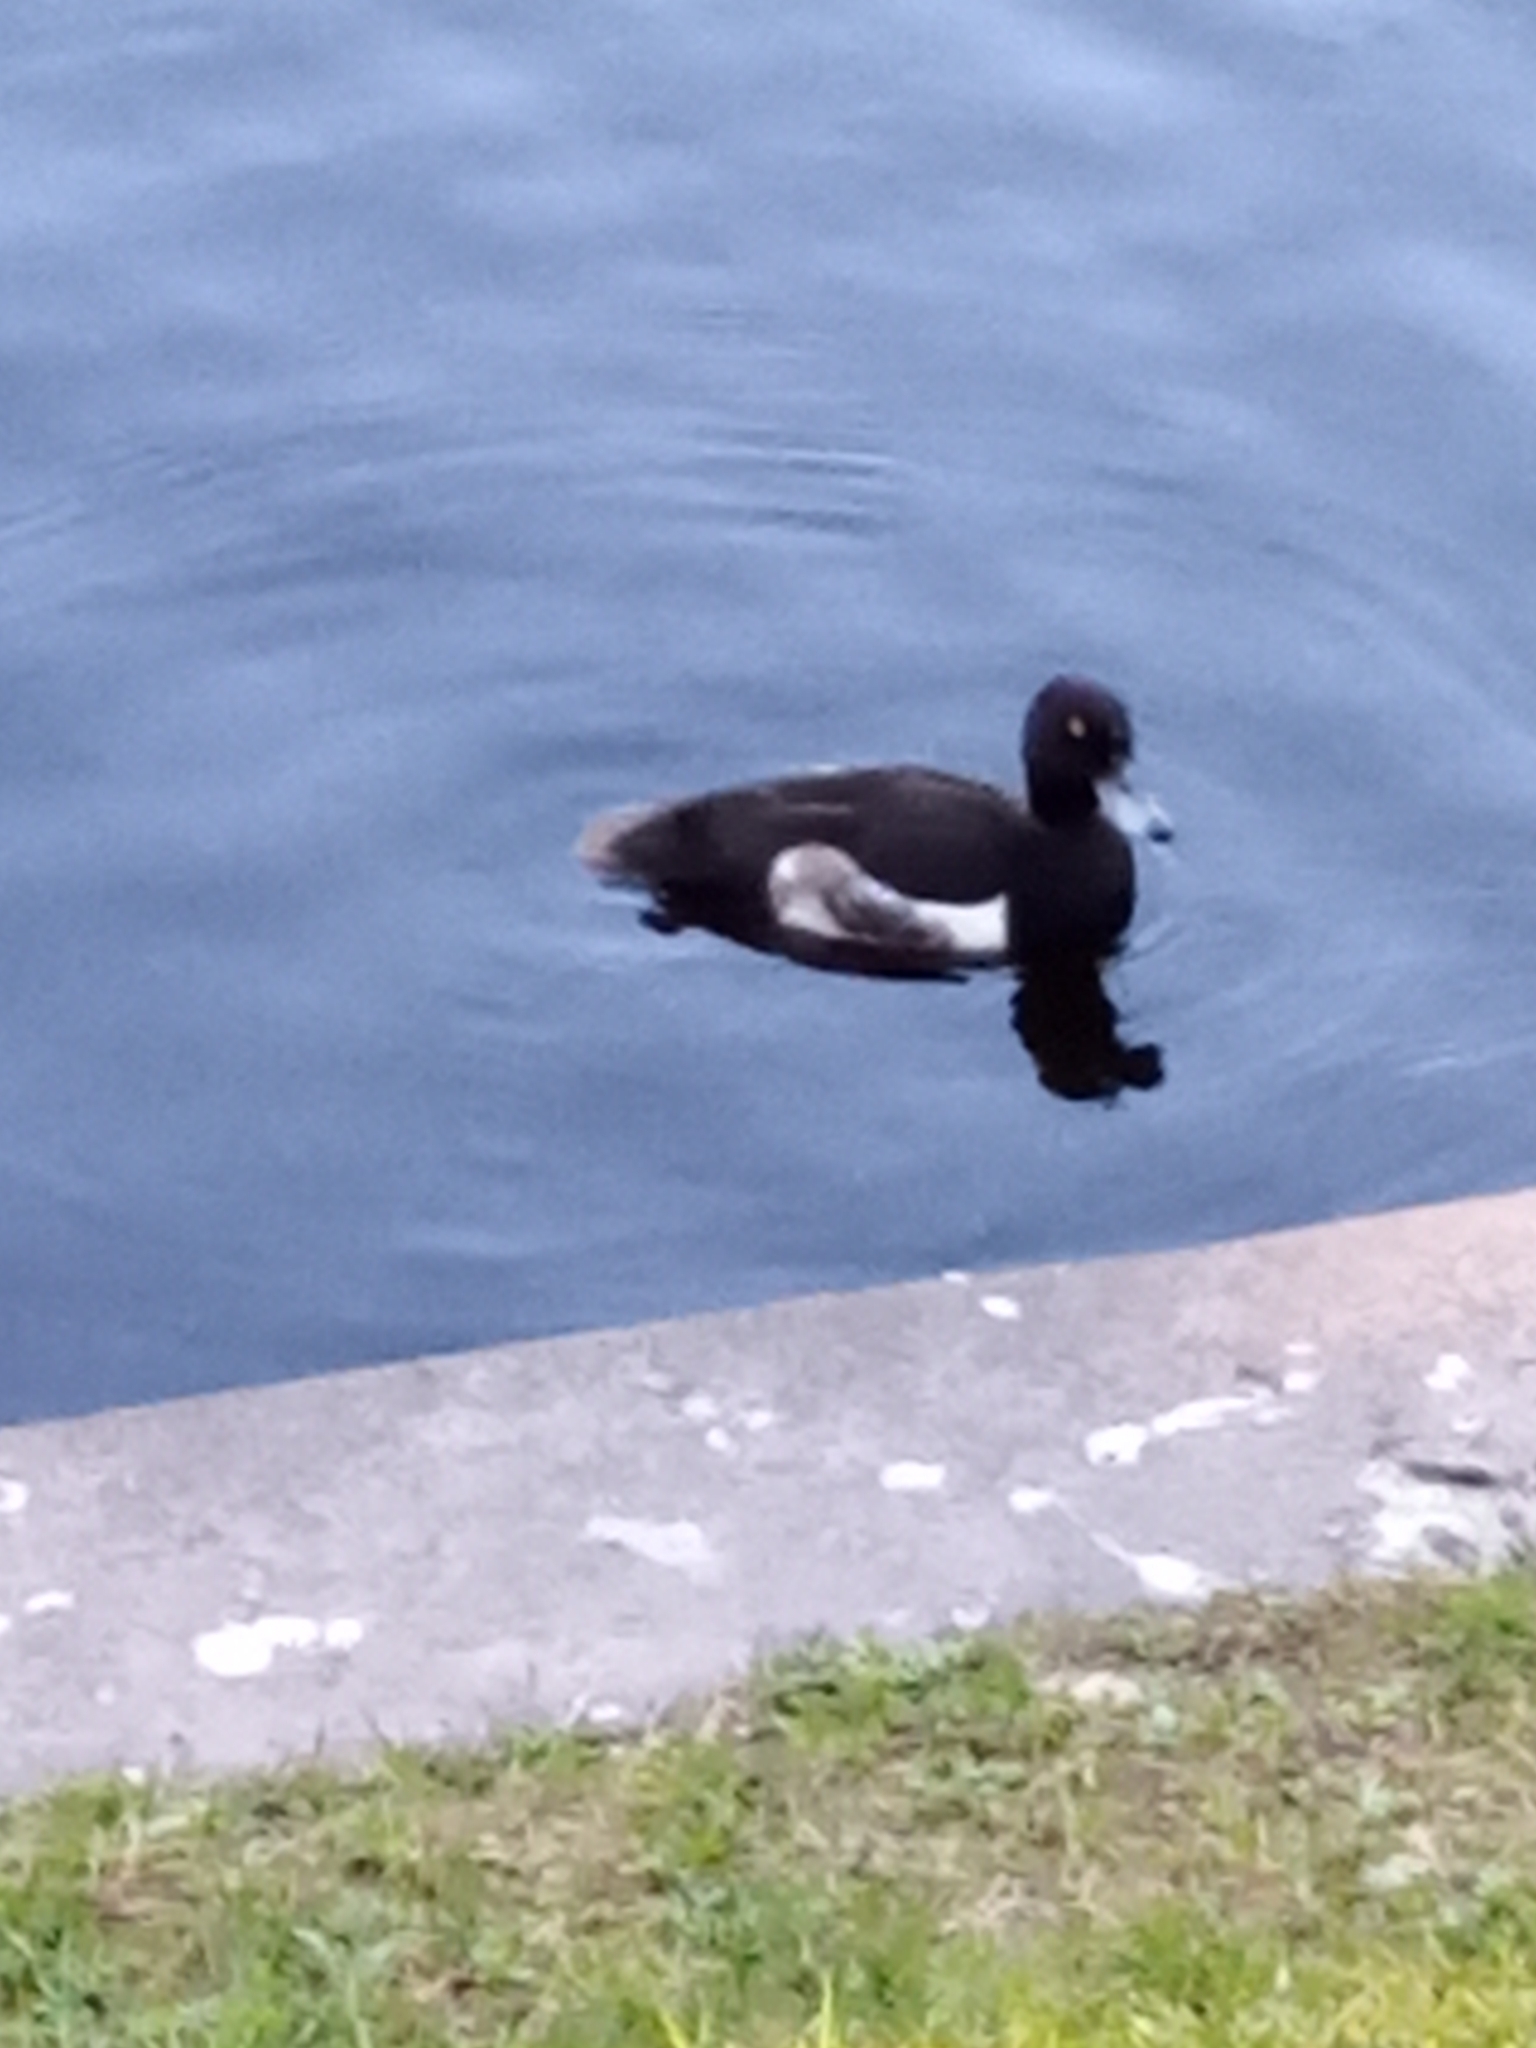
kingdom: Animalia
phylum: Chordata
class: Aves
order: Anseriformes
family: Anatidae
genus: Aythya
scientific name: Aythya fuligula
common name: Tufted duck
